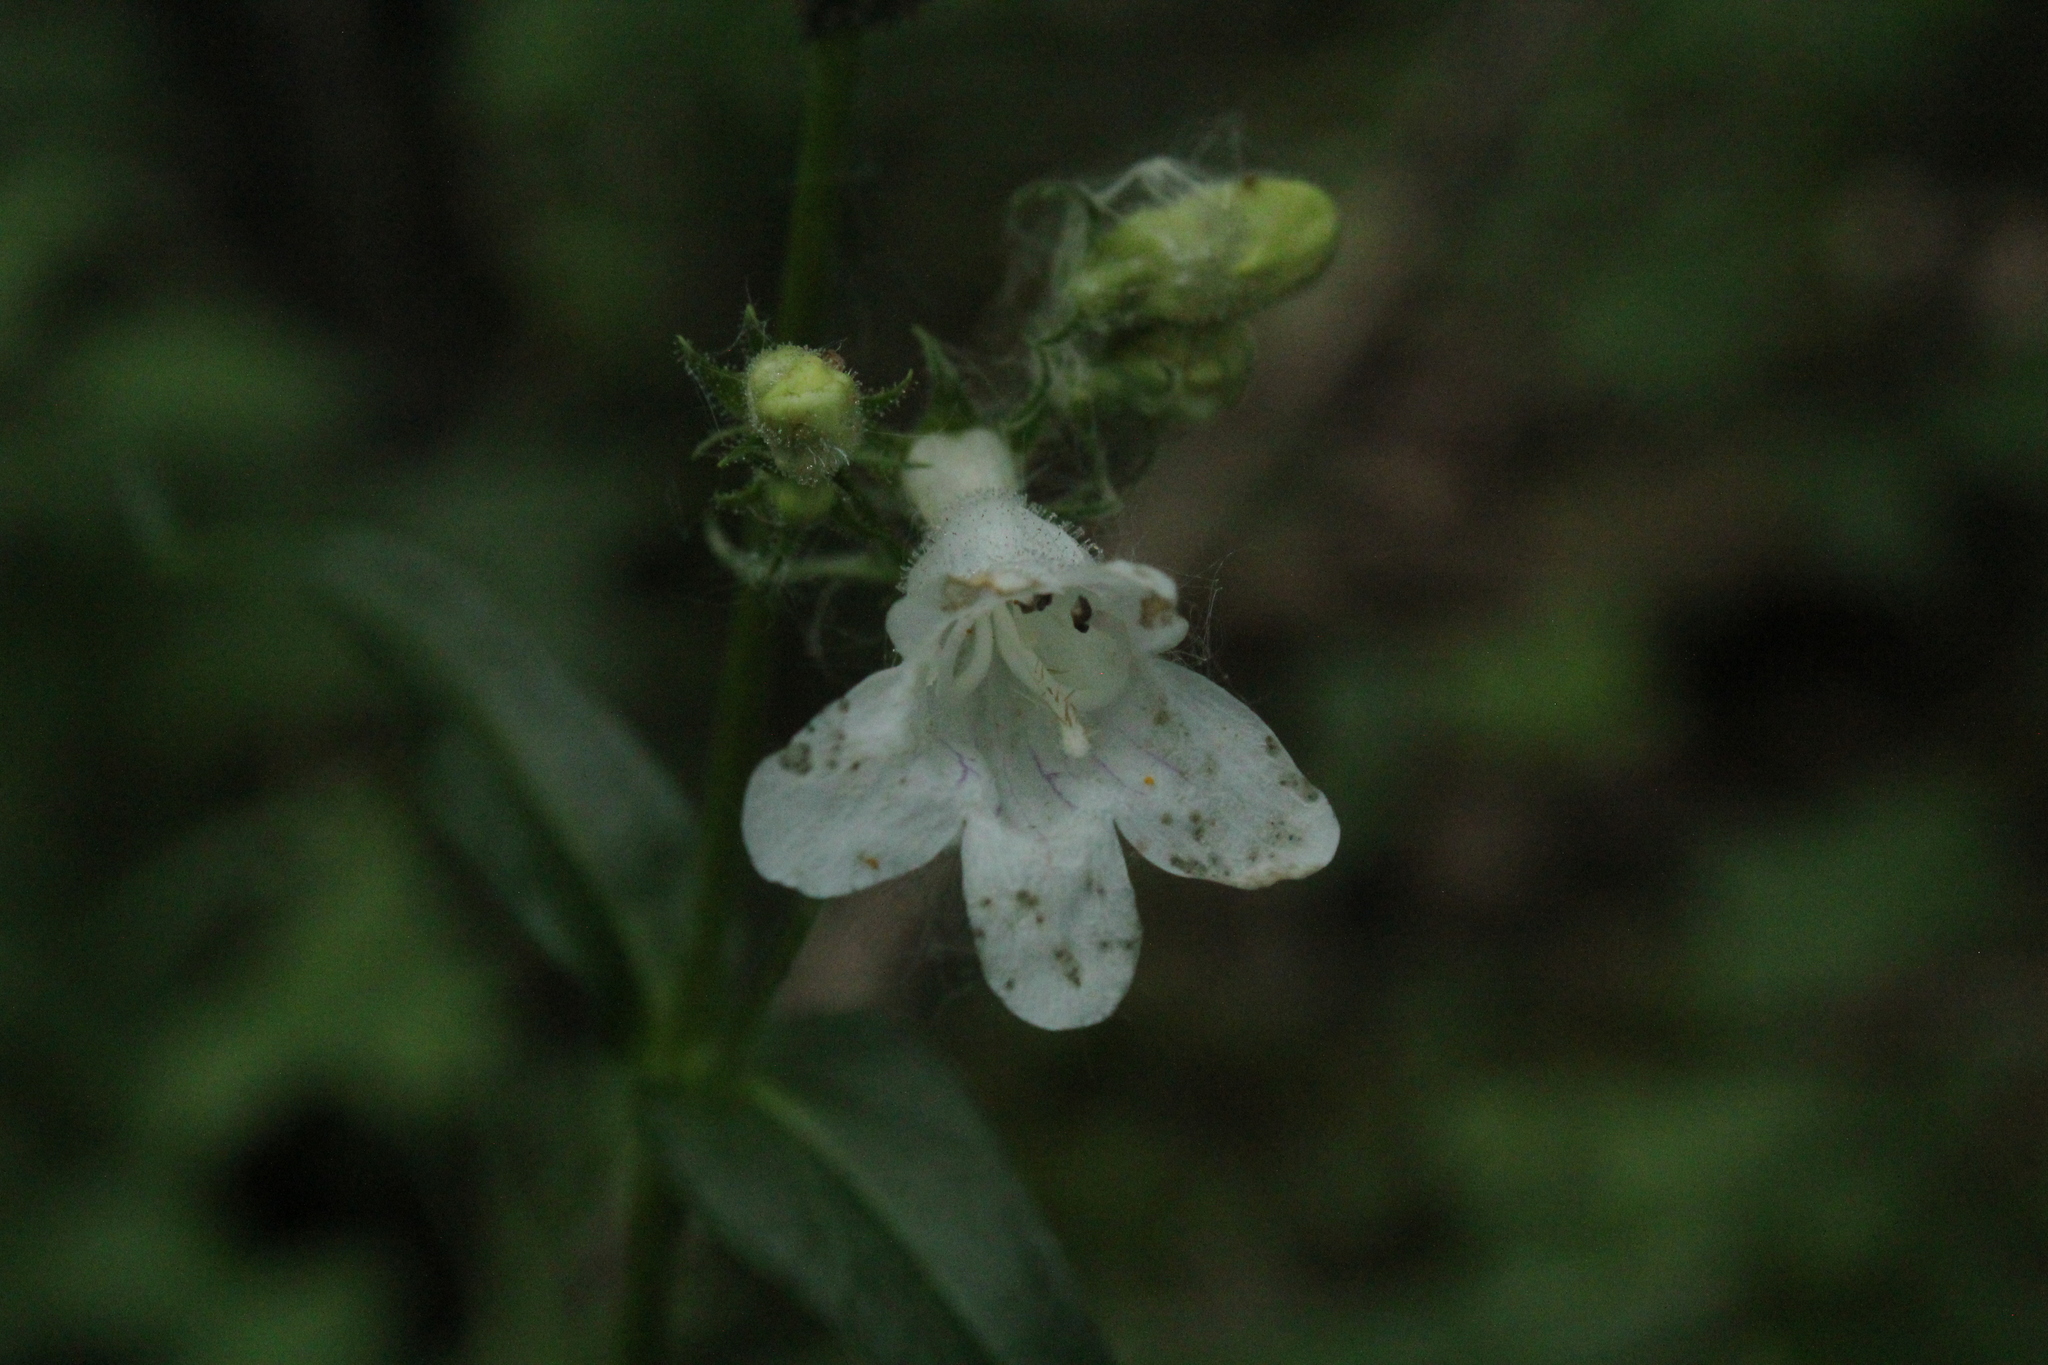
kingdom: Plantae
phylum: Tracheophyta
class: Magnoliopsida
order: Lamiales
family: Plantaginaceae
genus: Penstemon
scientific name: Penstemon digitalis
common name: Foxglove beardtongue
